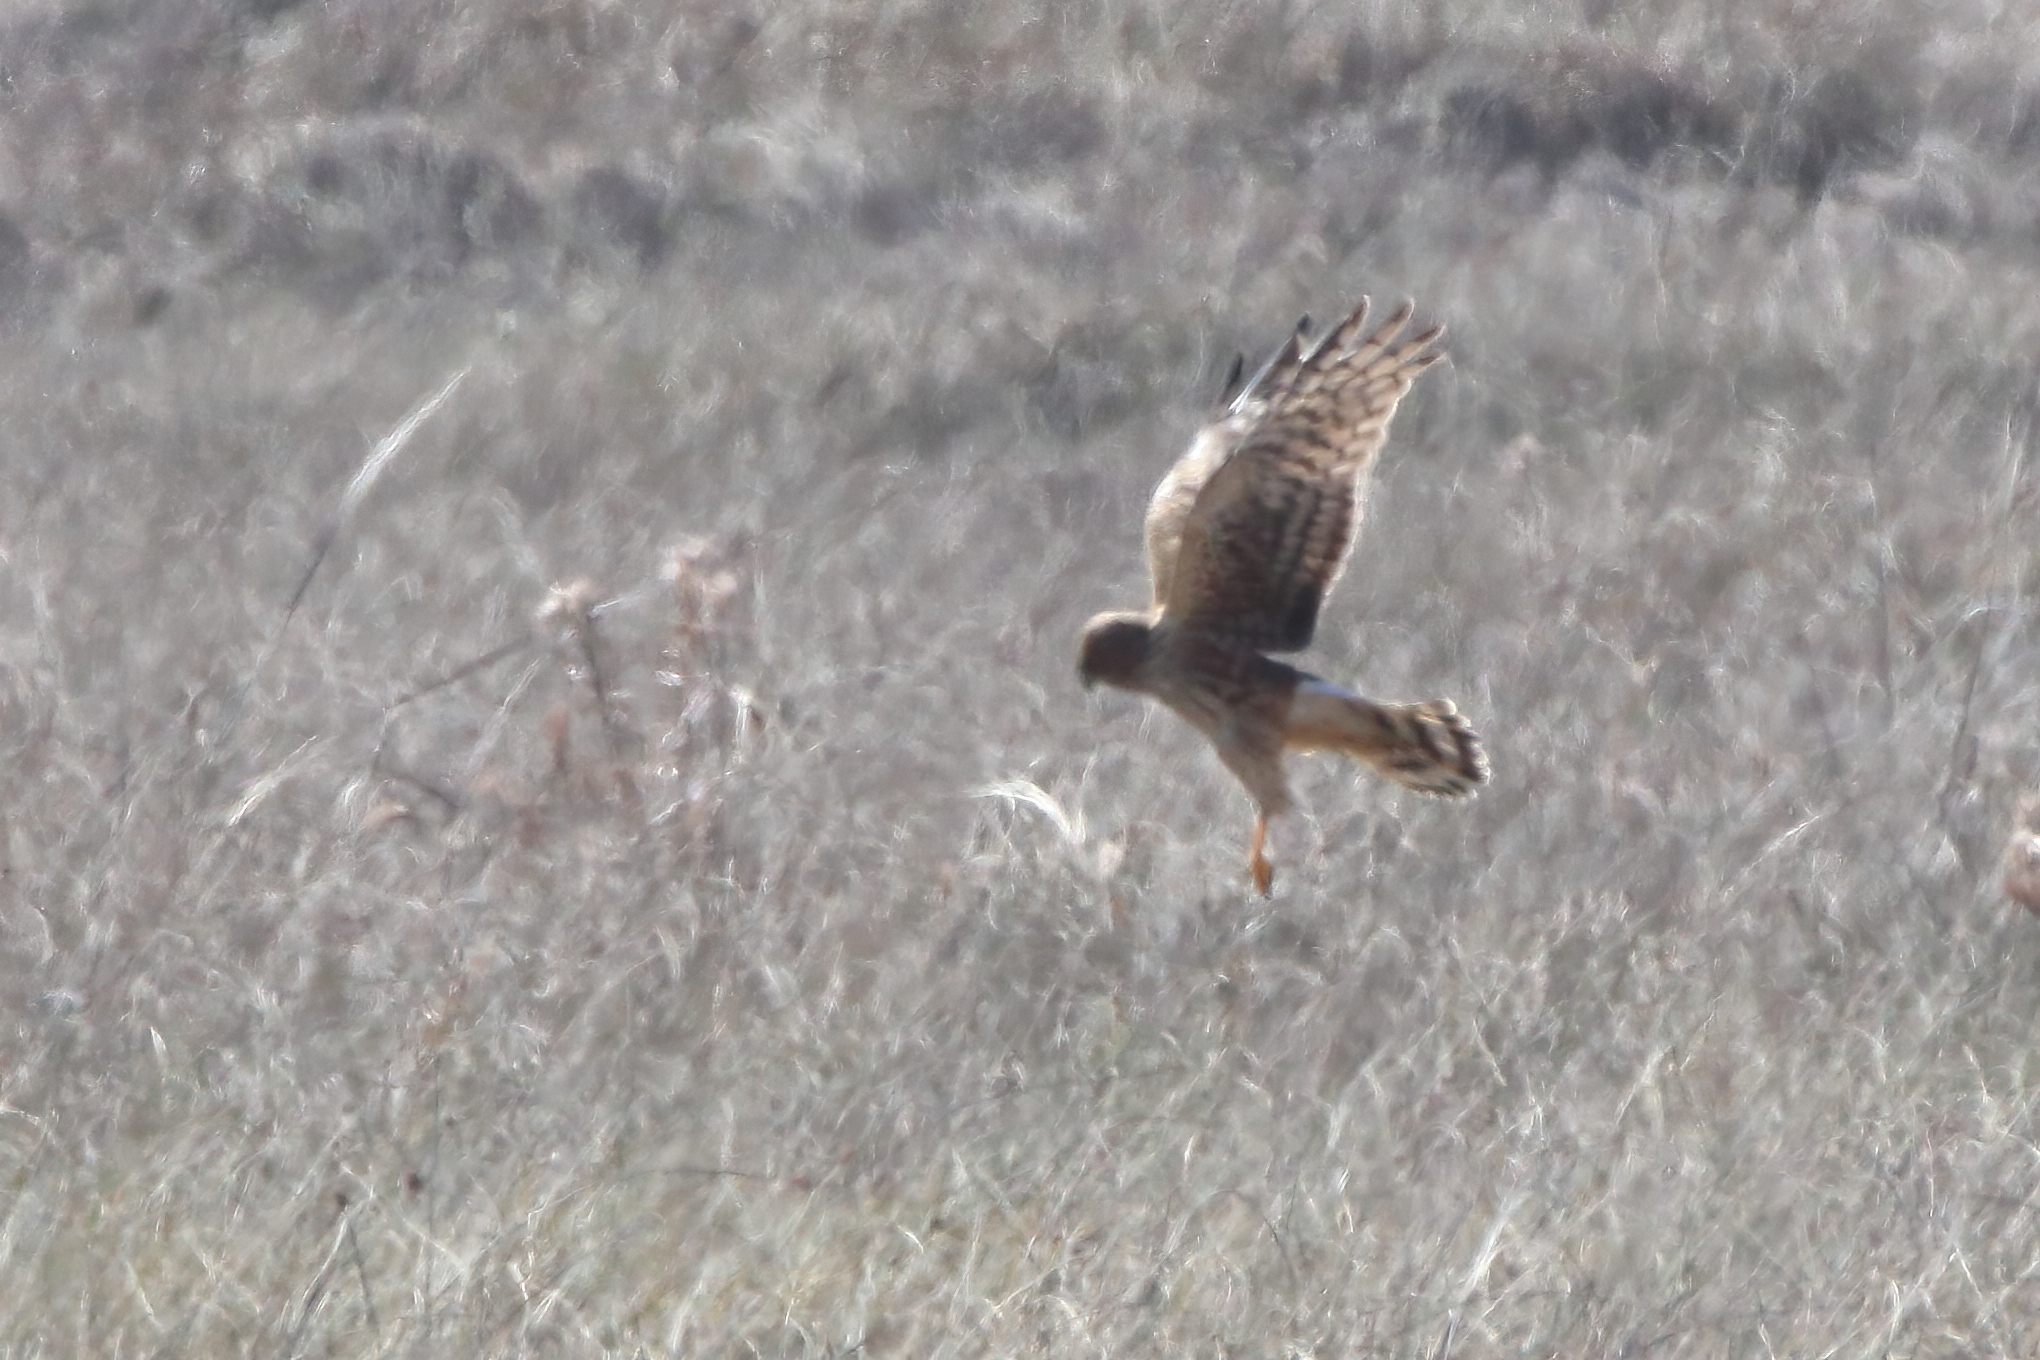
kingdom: Animalia
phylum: Chordata
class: Aves
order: Accipitriformes
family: Accipitridae
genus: Circus
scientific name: Circus cyaneus
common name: Hen harrier
